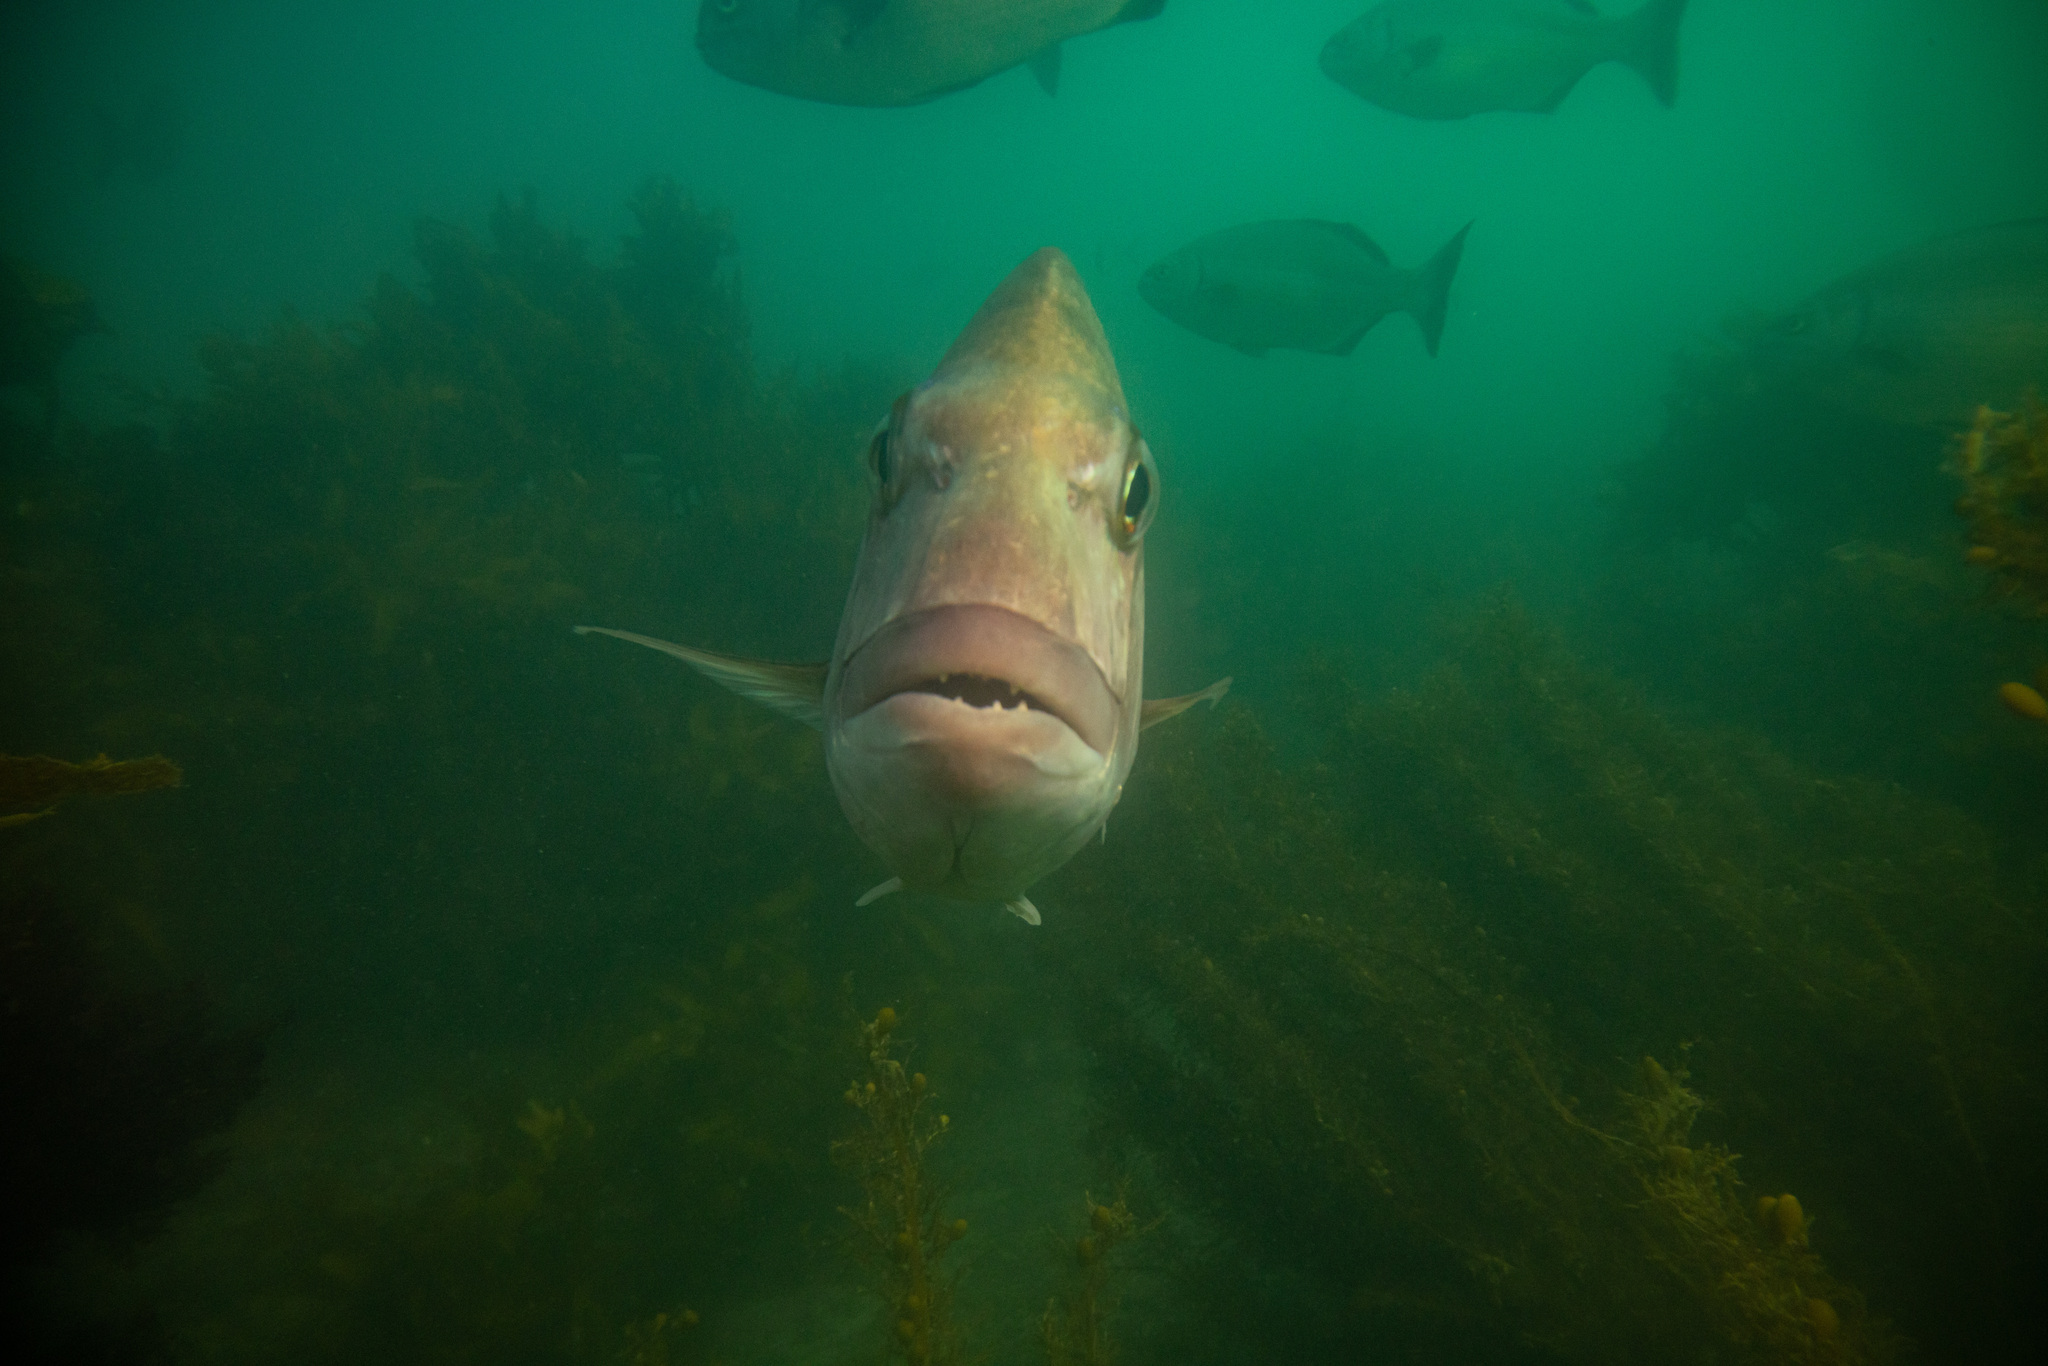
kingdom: Animalia
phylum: Chordata
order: Perciformes
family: Sparidae
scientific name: Sparidae
